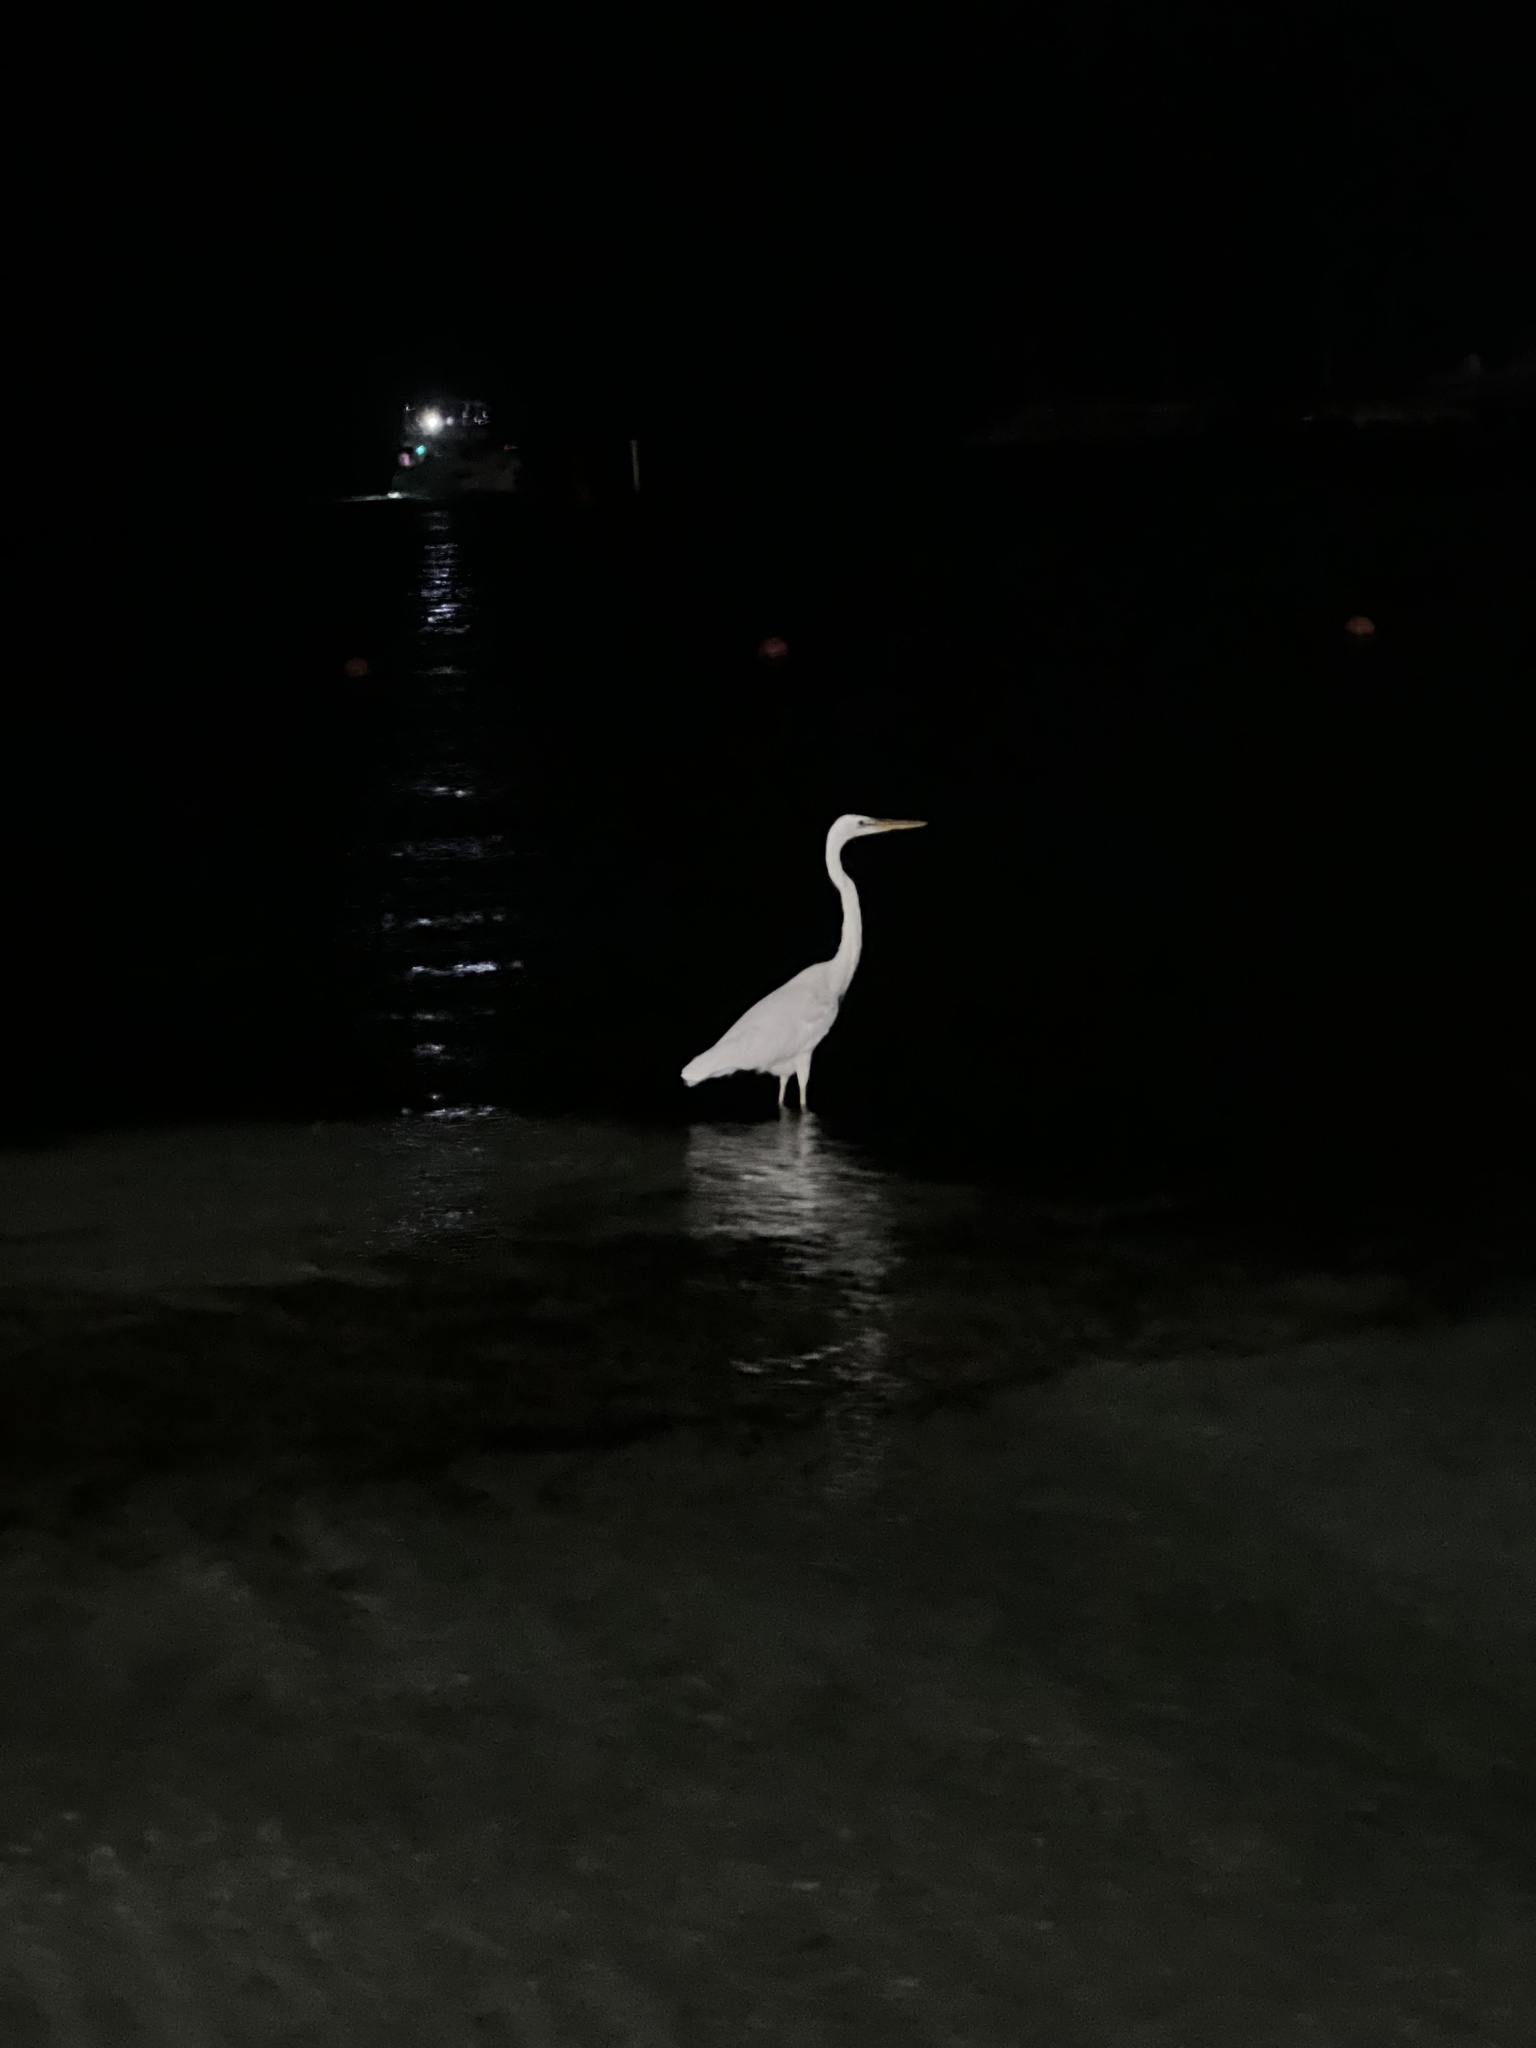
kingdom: Animalia
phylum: Chordata
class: Aves
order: Pelecaniformes
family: Ardeidae
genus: Ardea
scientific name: Ardea herodias
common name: Great blue heron
